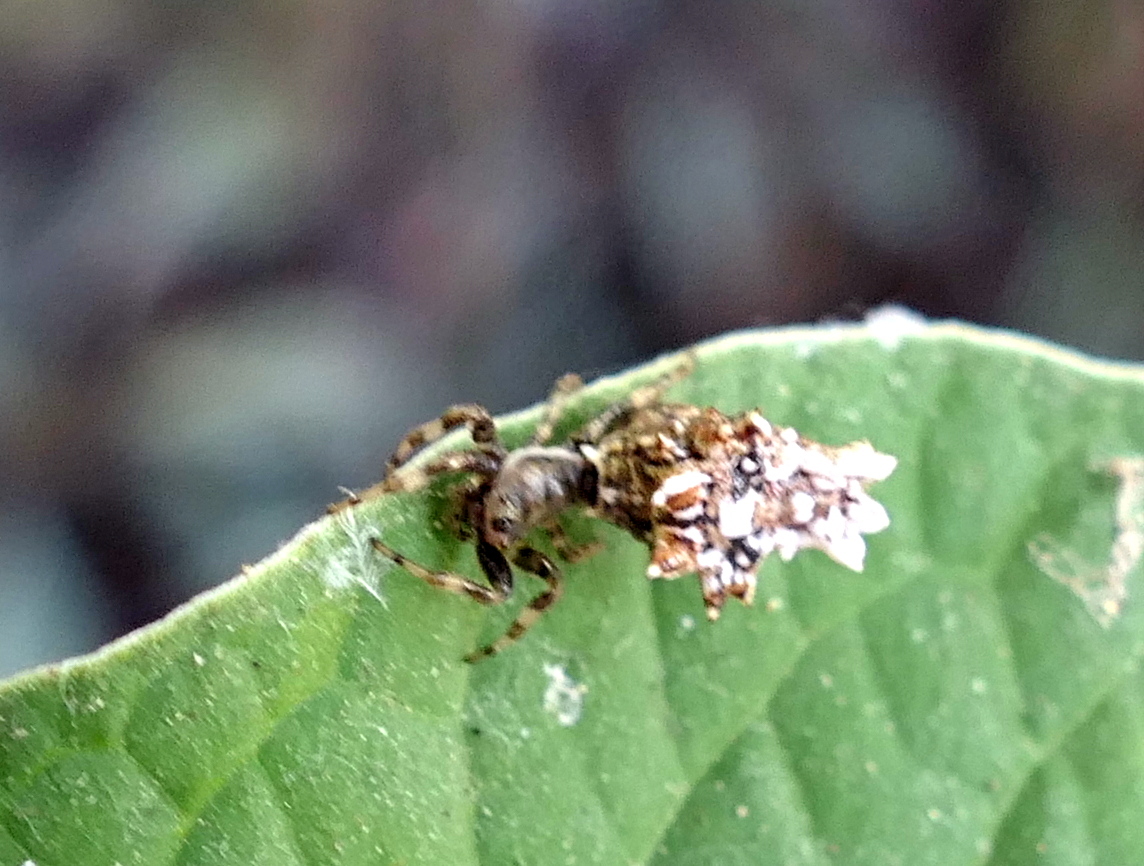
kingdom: Animalia
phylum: Arthropoda
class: Arachnida
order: Araneae
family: Araneidae
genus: Micrathena
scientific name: Micrathena horrida
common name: Orb weavers
